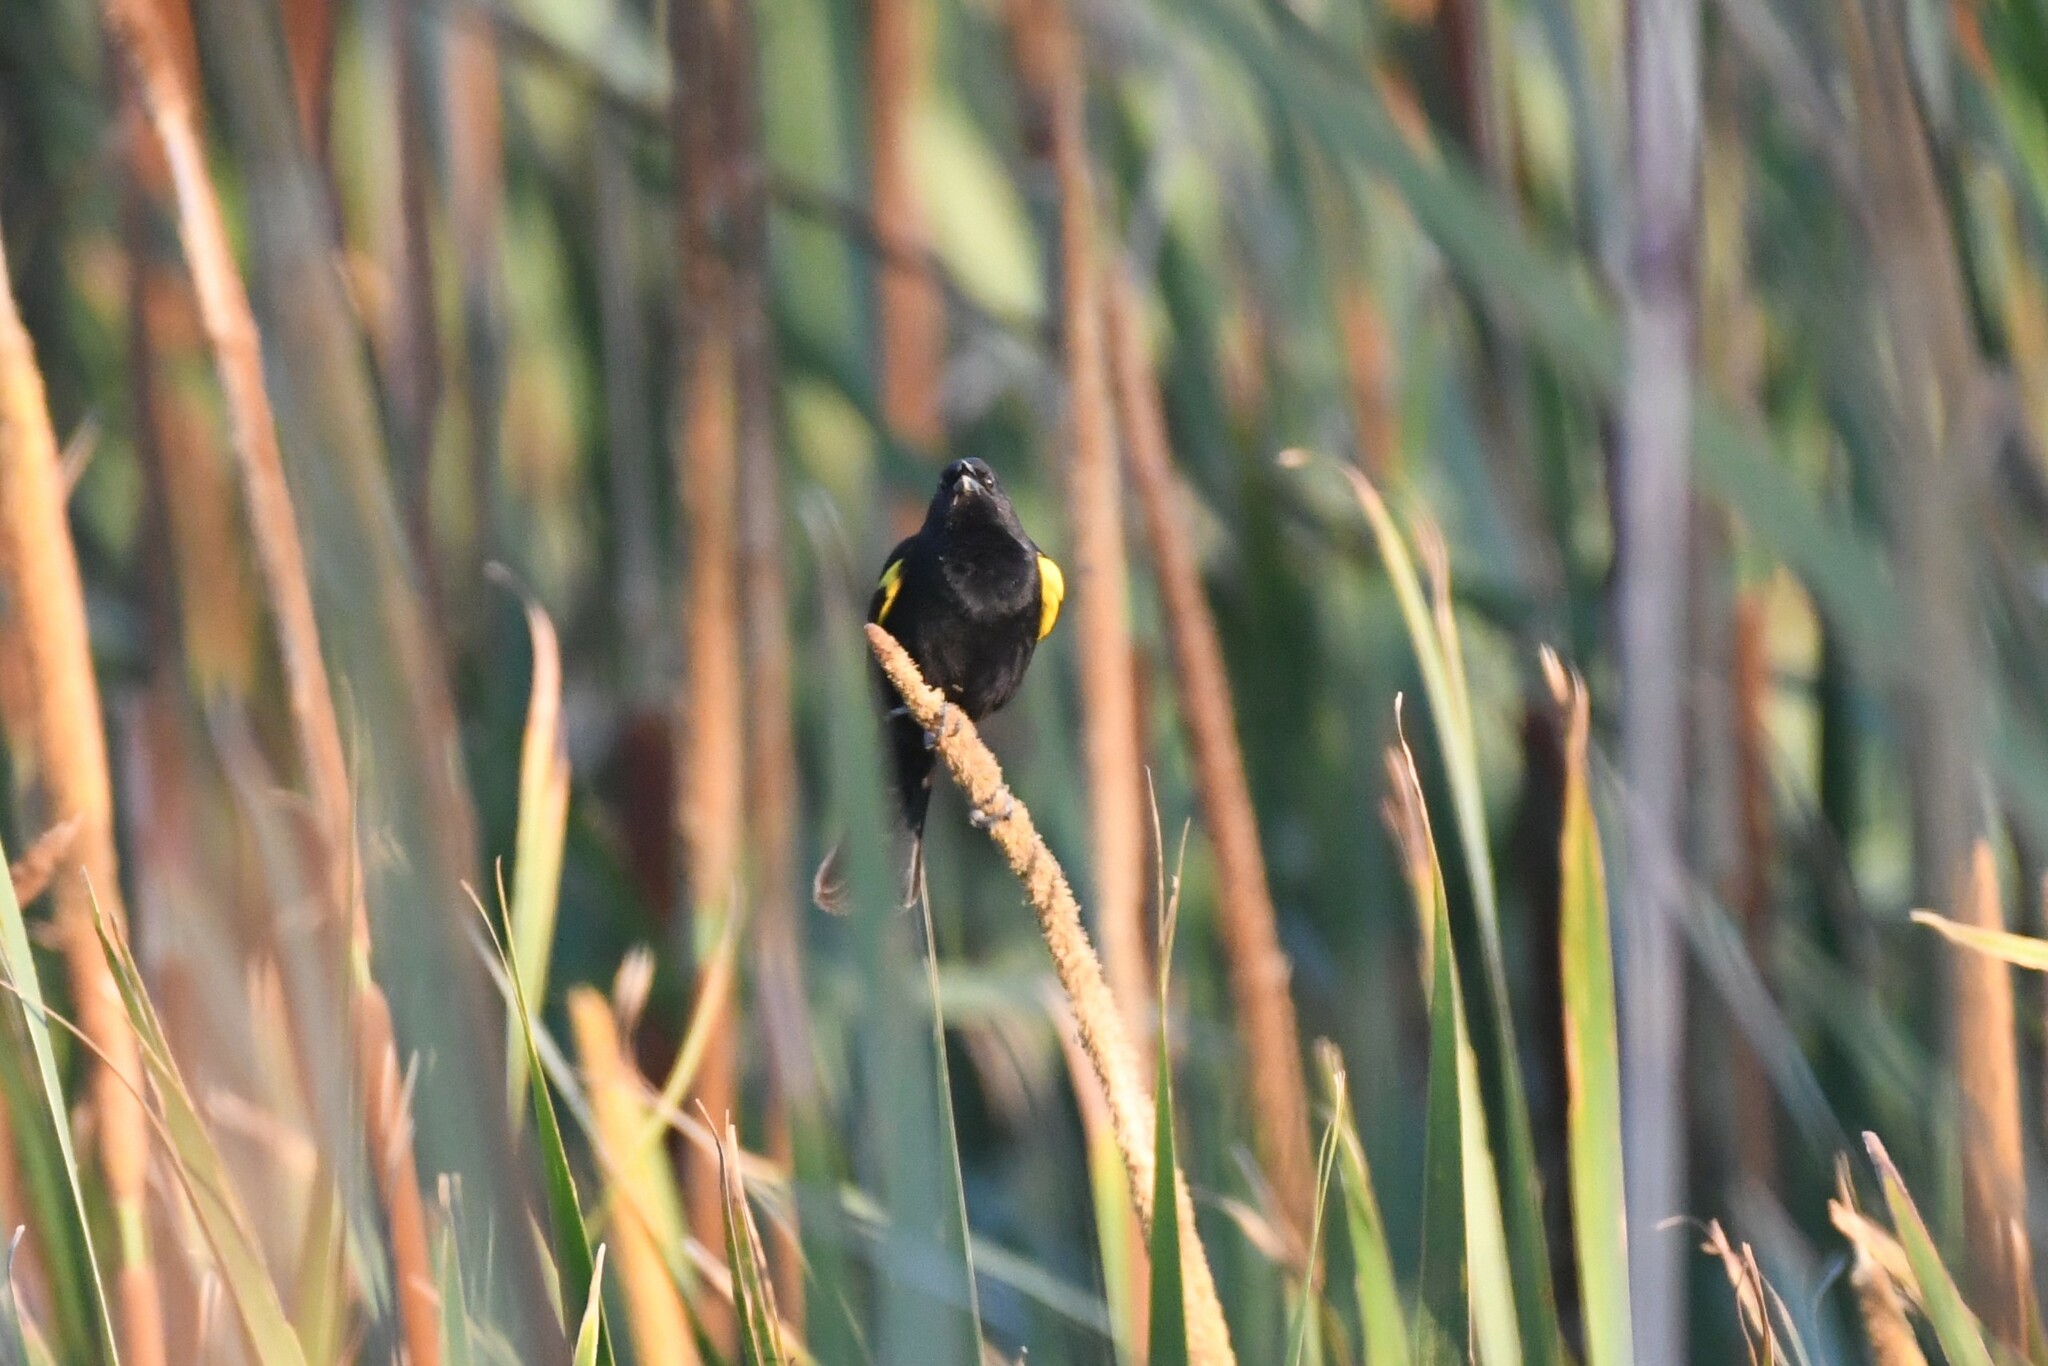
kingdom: Animalia
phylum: Chordata
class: Aves
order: Passeriformes
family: Icteridae
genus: Agelasticus
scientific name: Agelasticus thilius
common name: Yellow-winged blackbird
